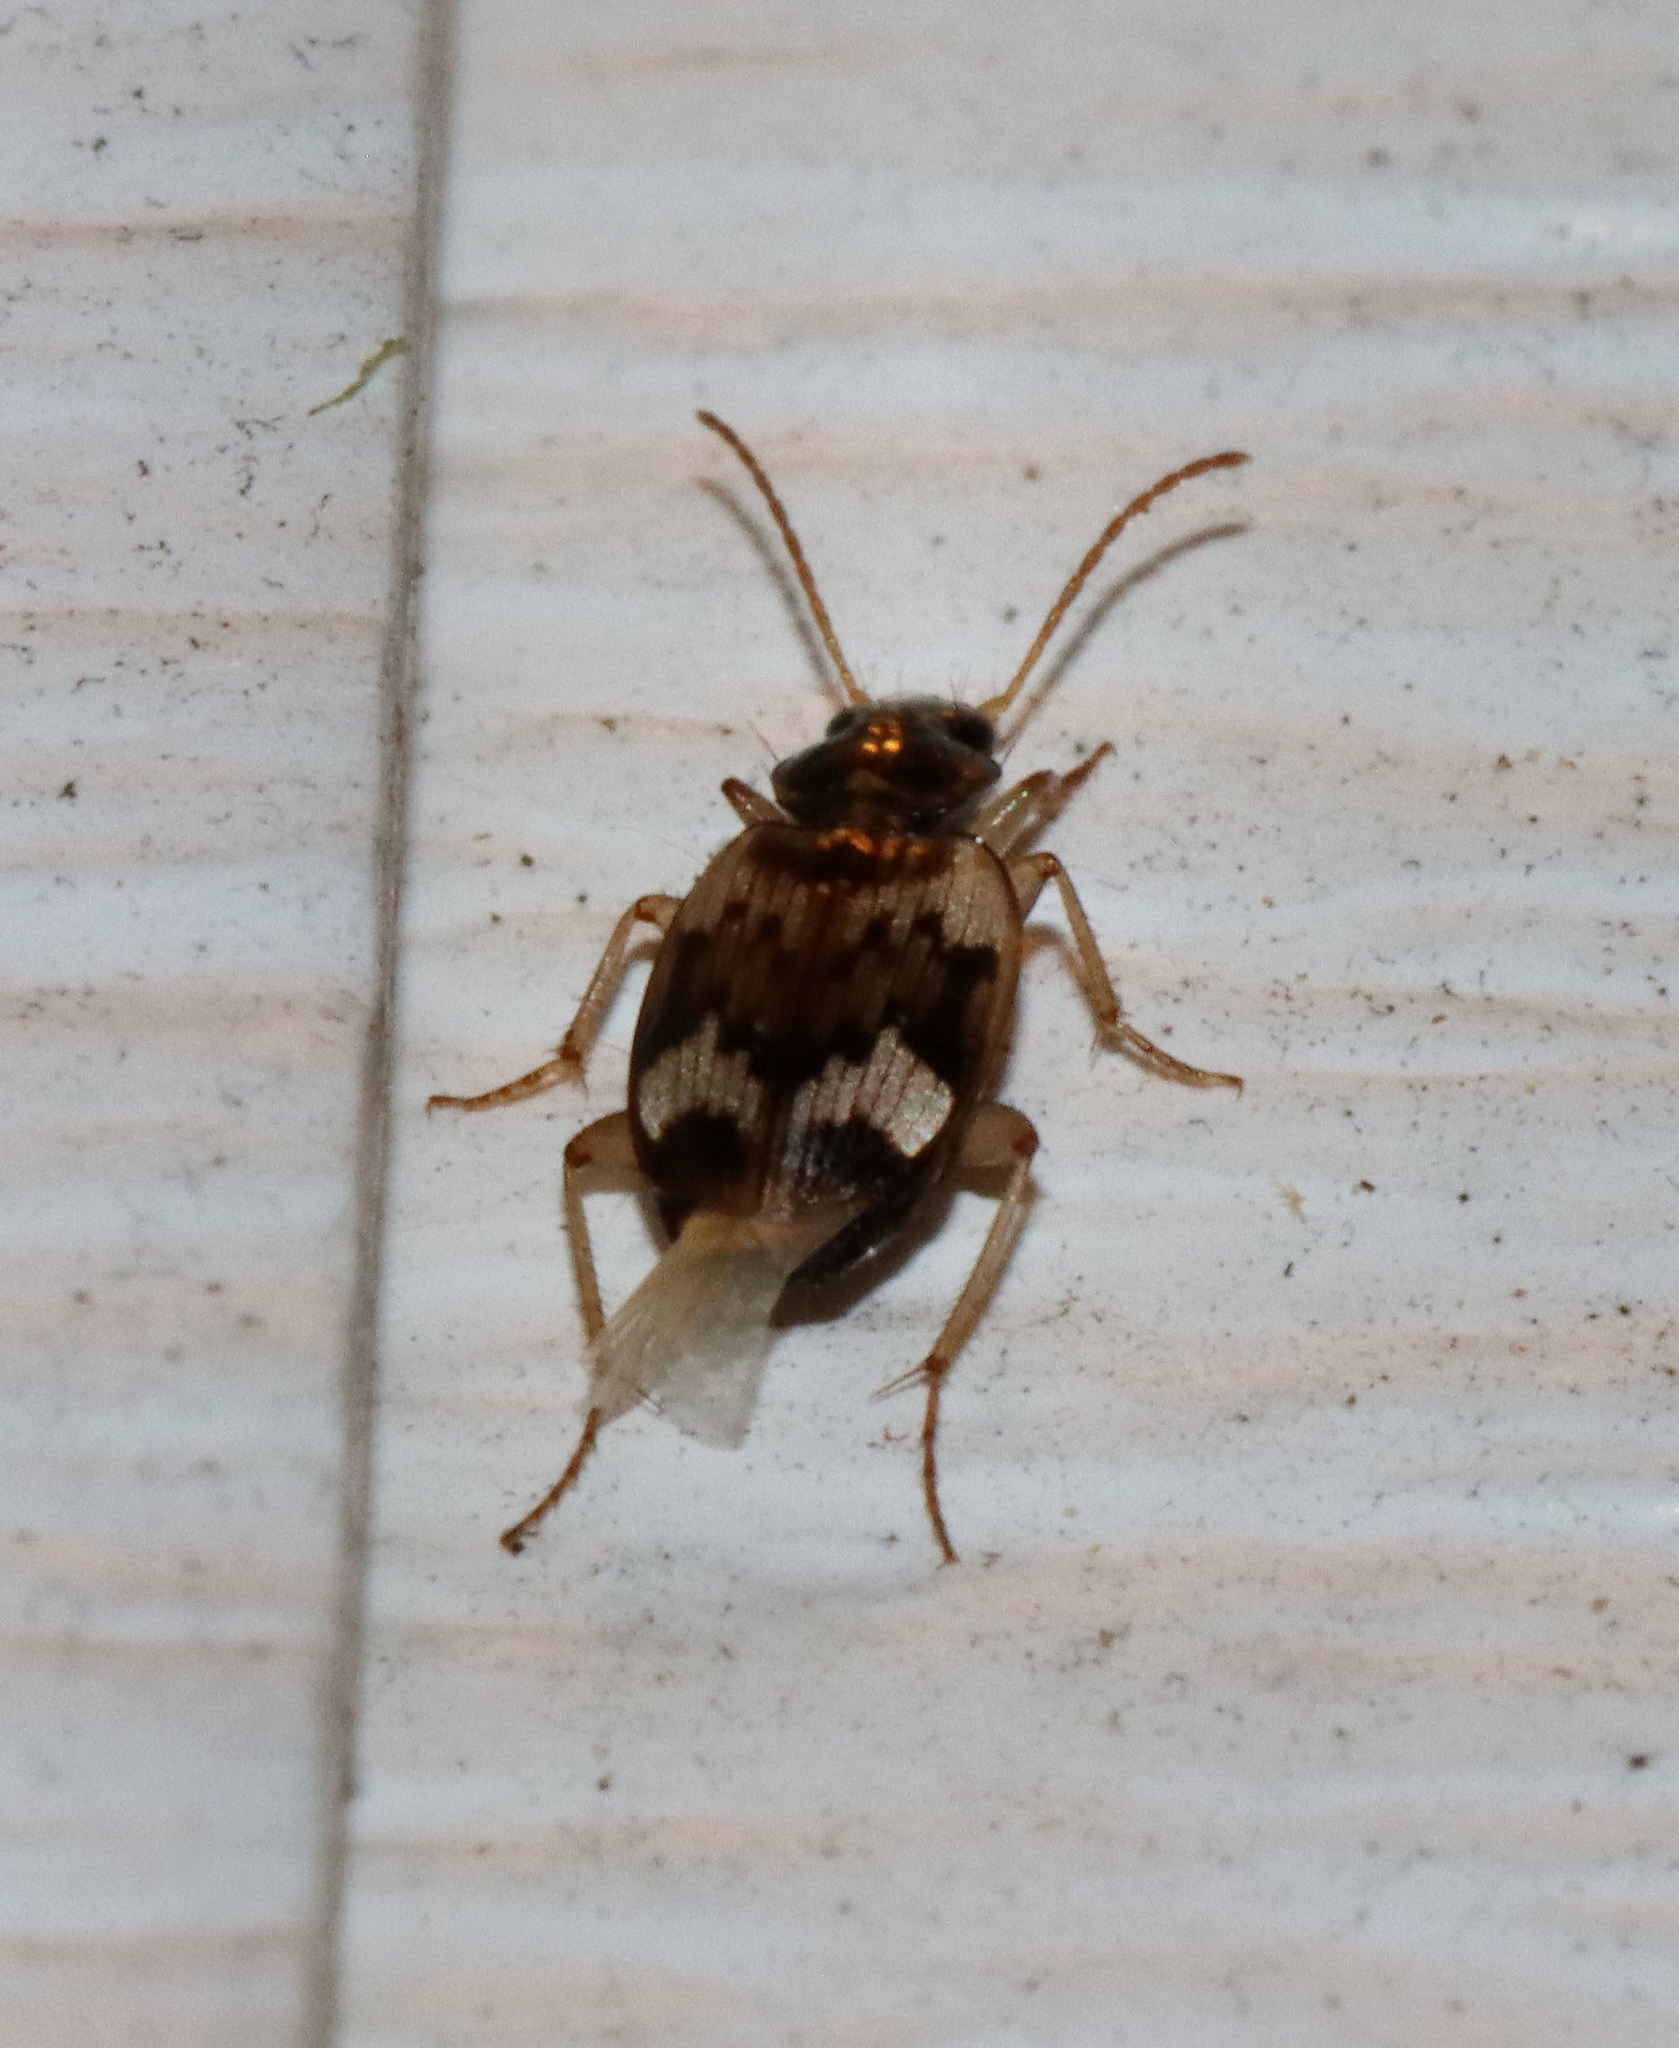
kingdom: Animalia
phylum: Arthropoda
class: Insecta
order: Coleoptera
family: Carabidae
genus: Tetragonoderus
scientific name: Tetragonoderus fasciatus
